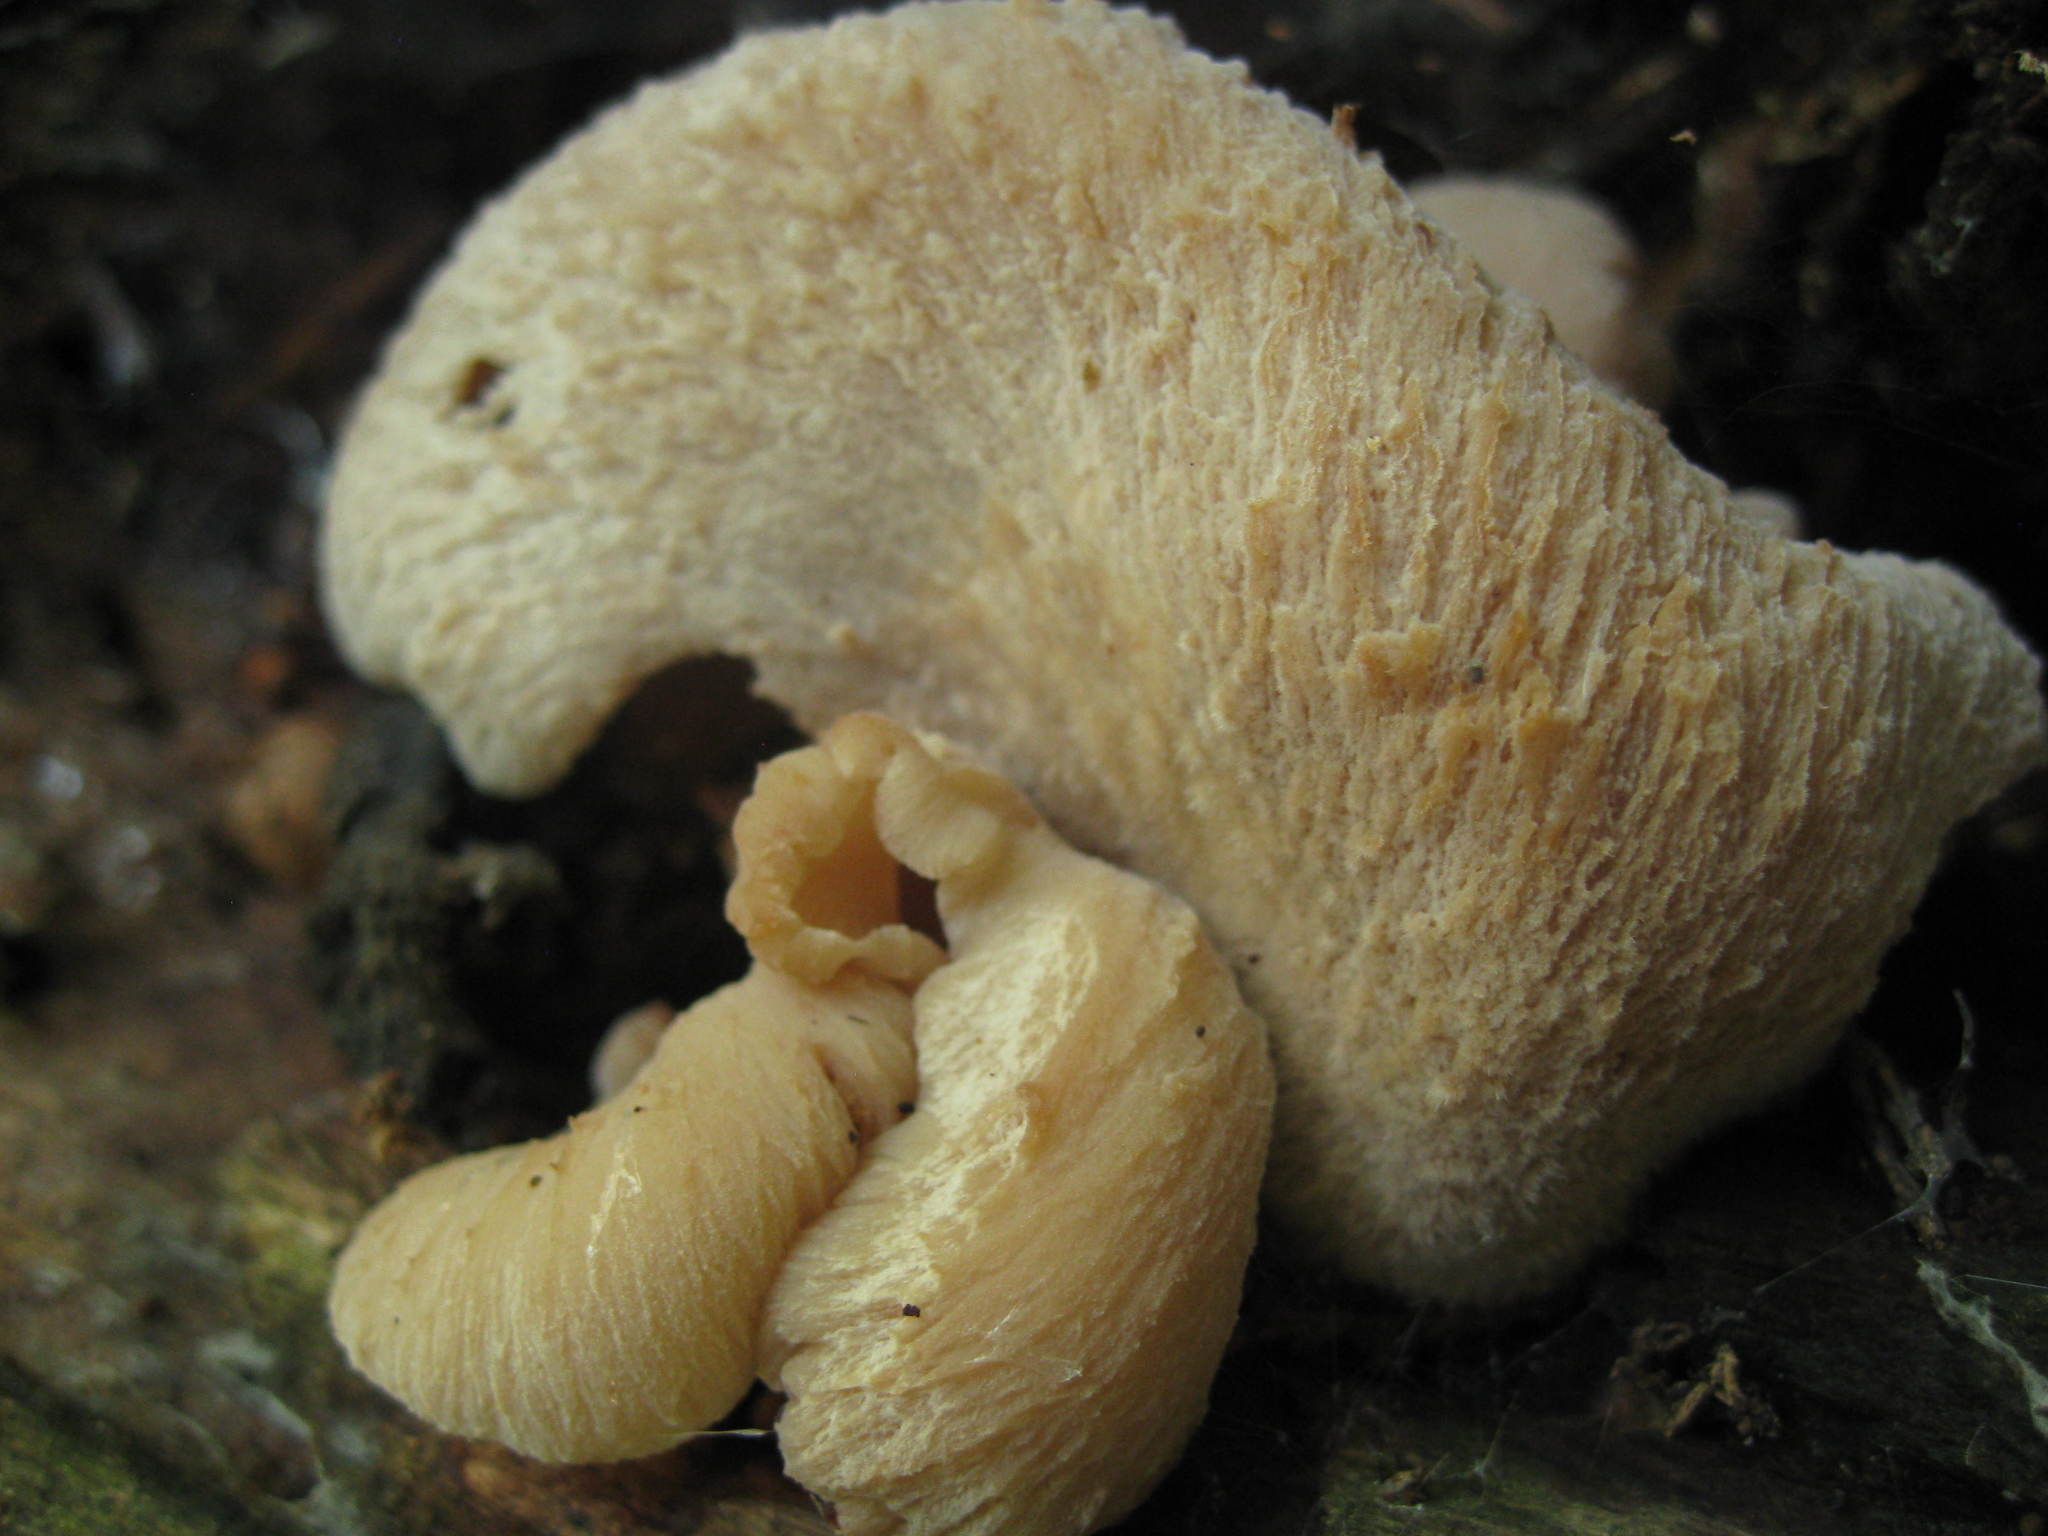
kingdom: Fungi
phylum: Basidiomycota
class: Agaricomycetes
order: Russulales
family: Auriscalpiaceae
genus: Lentinellus
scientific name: Lentinellus ursinus
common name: Bear lentinus
